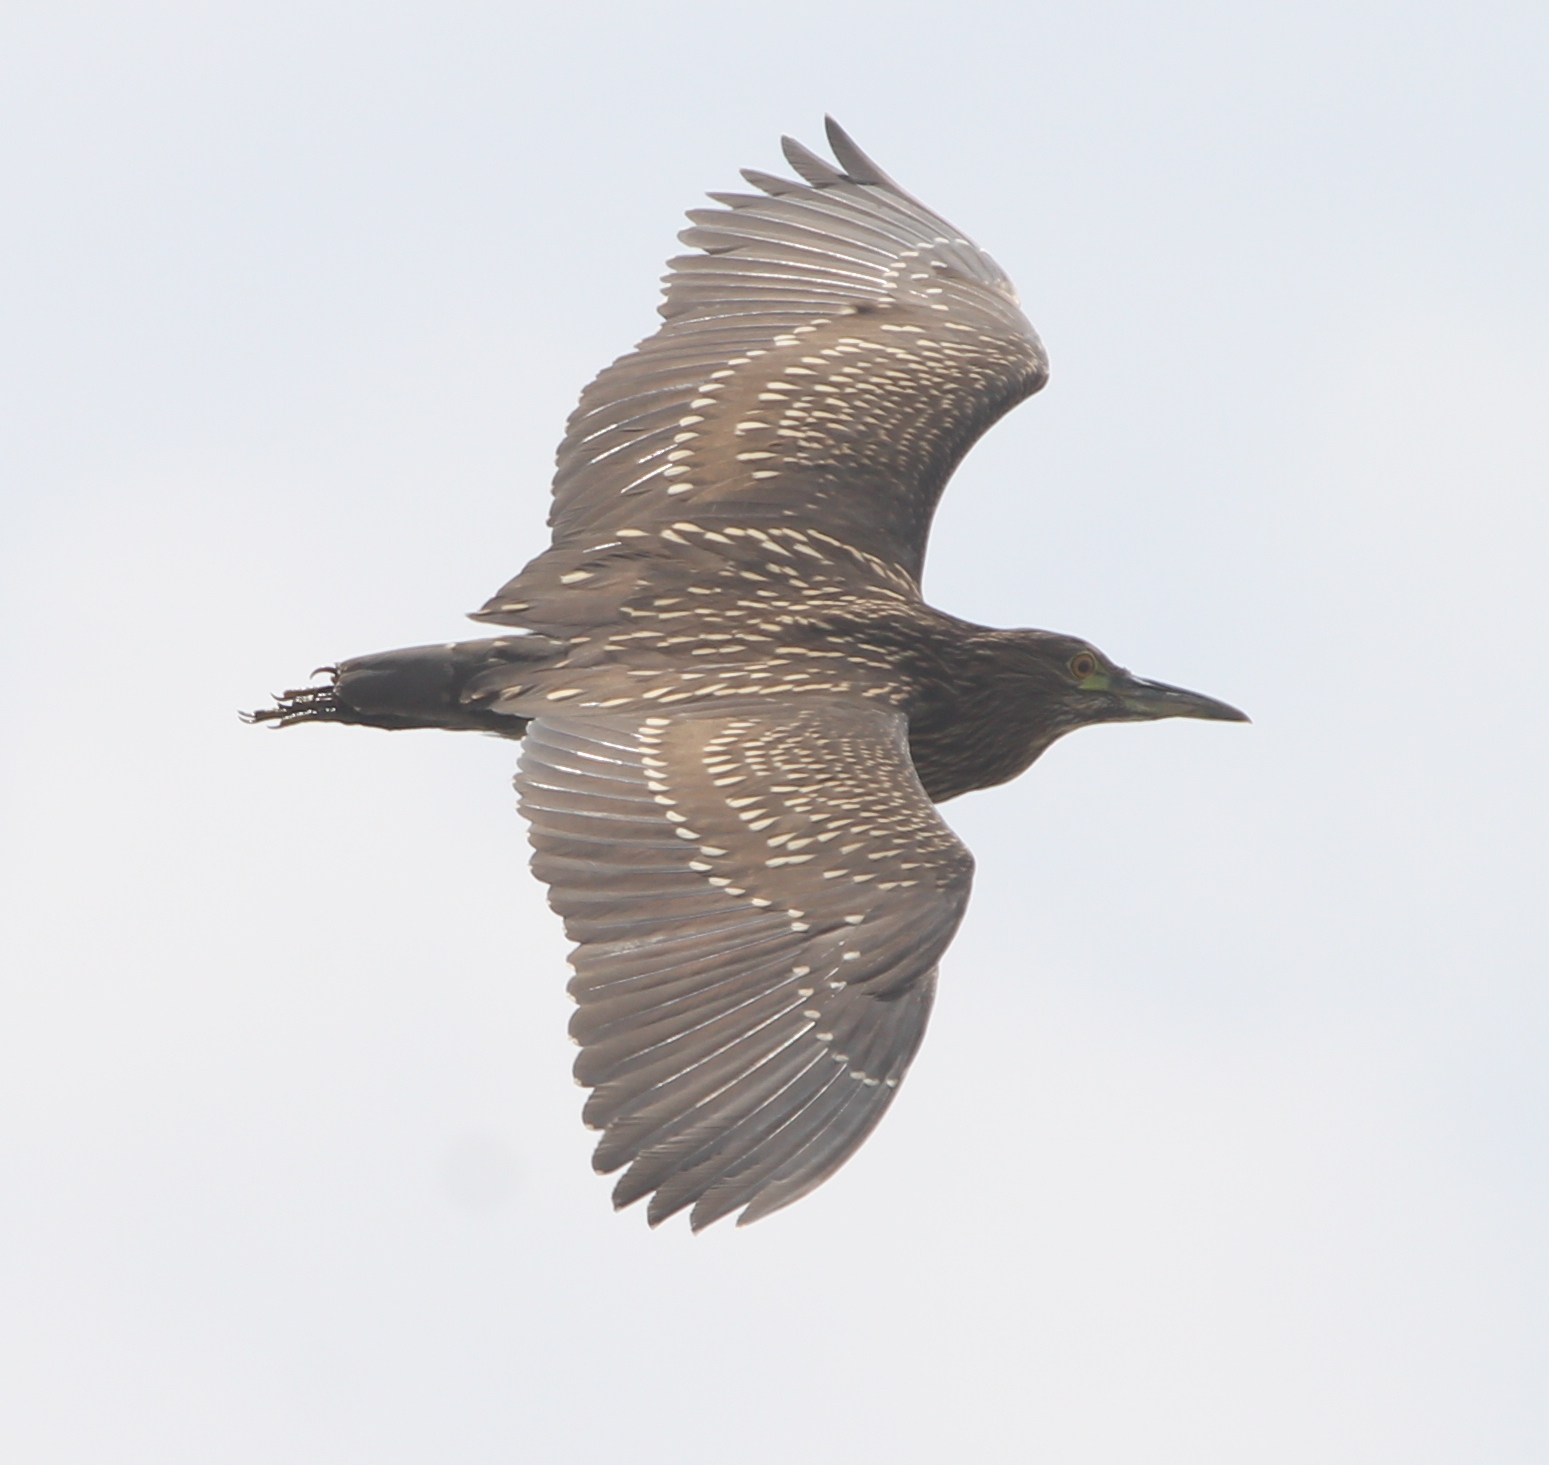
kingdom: Animalia
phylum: Chordata
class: Aves
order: Pelecaniformes
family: Ardeidae
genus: Nycticorax
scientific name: Nycticorax nycticorax
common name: Black-crowned night heron
